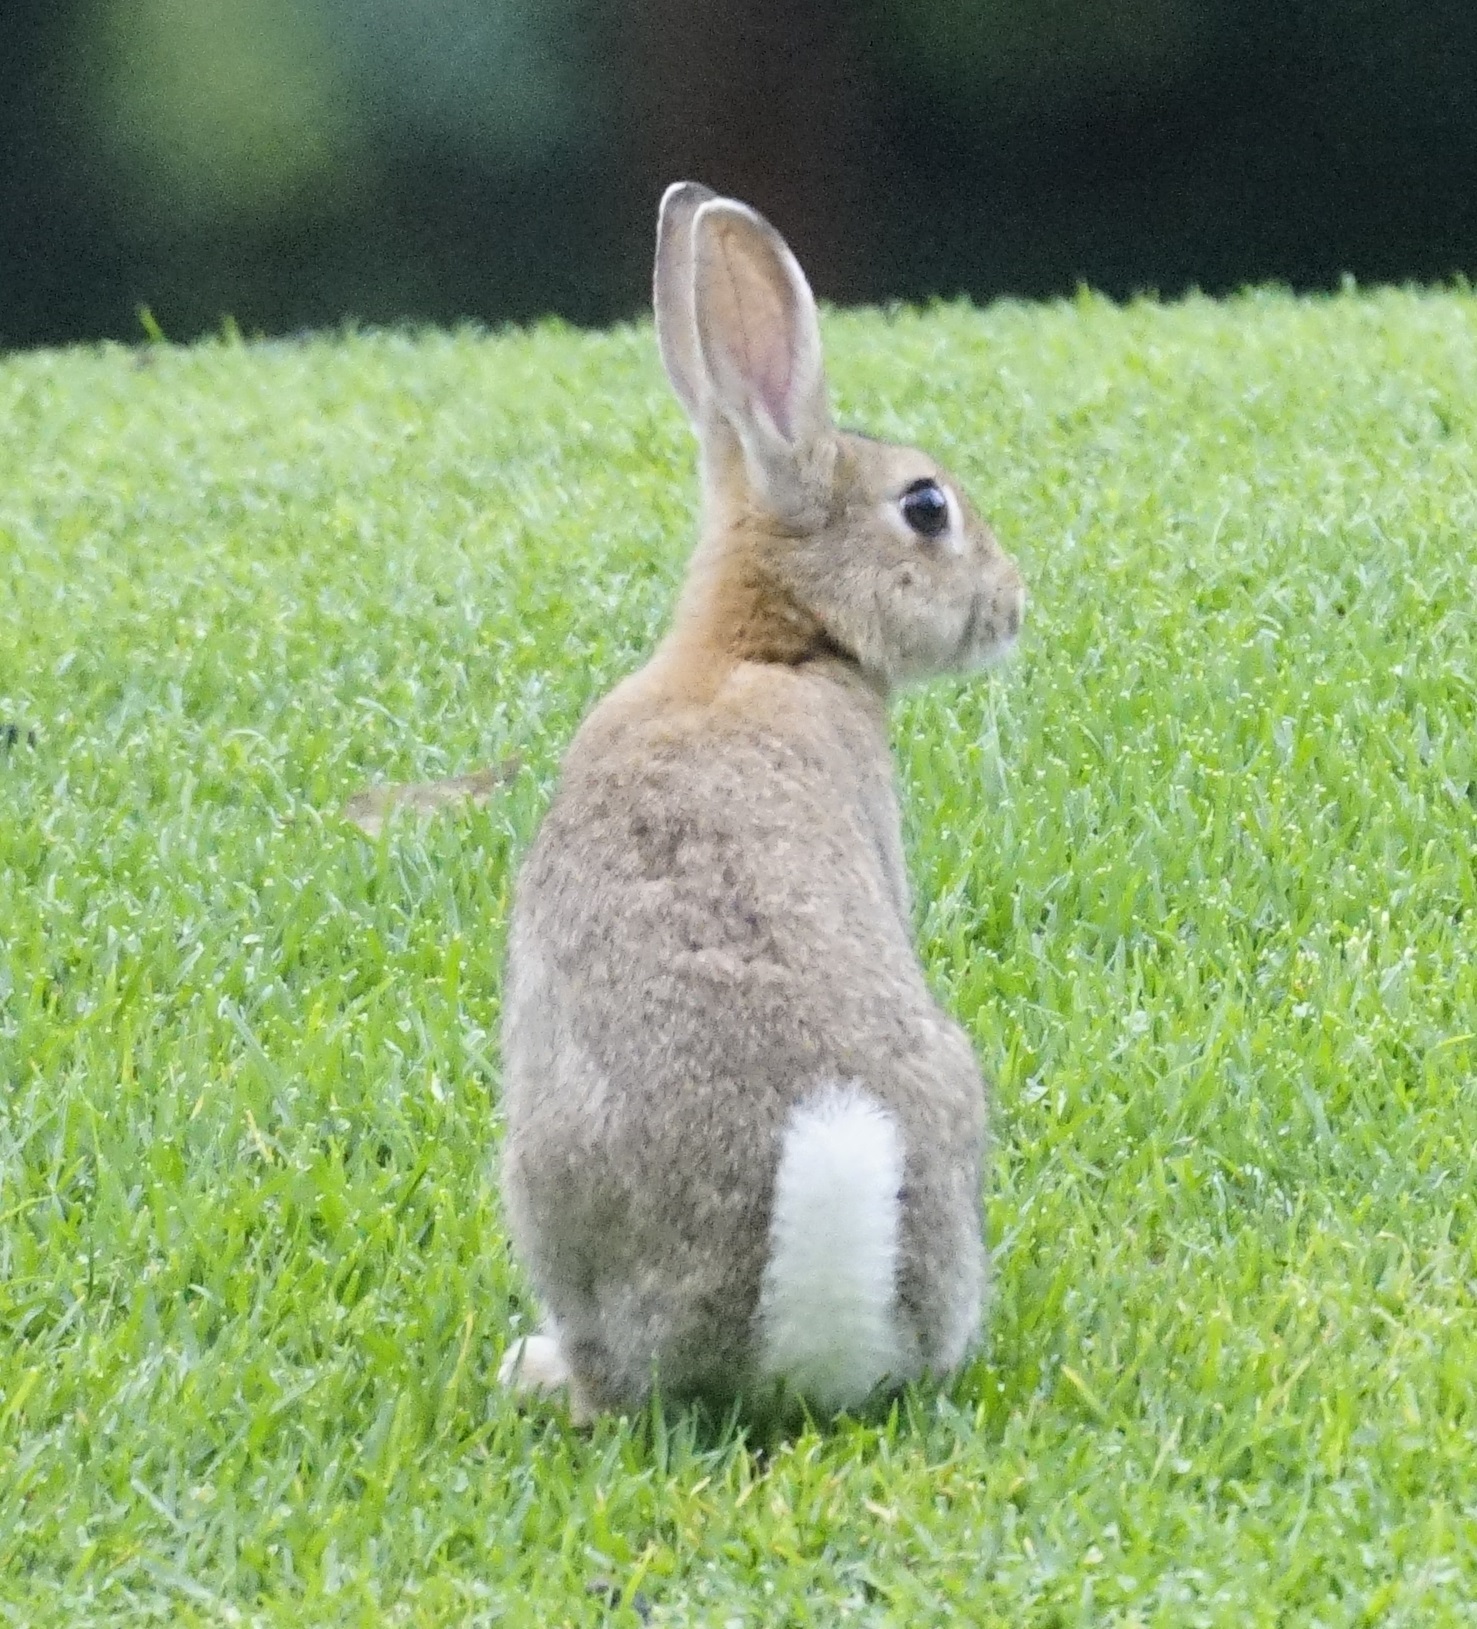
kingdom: Animalia
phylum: Chordata
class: Mammalia
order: Lagomorpha
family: Leporidae
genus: Oryctolagus
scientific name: Oryctolagus cuniculus
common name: European rabbit
